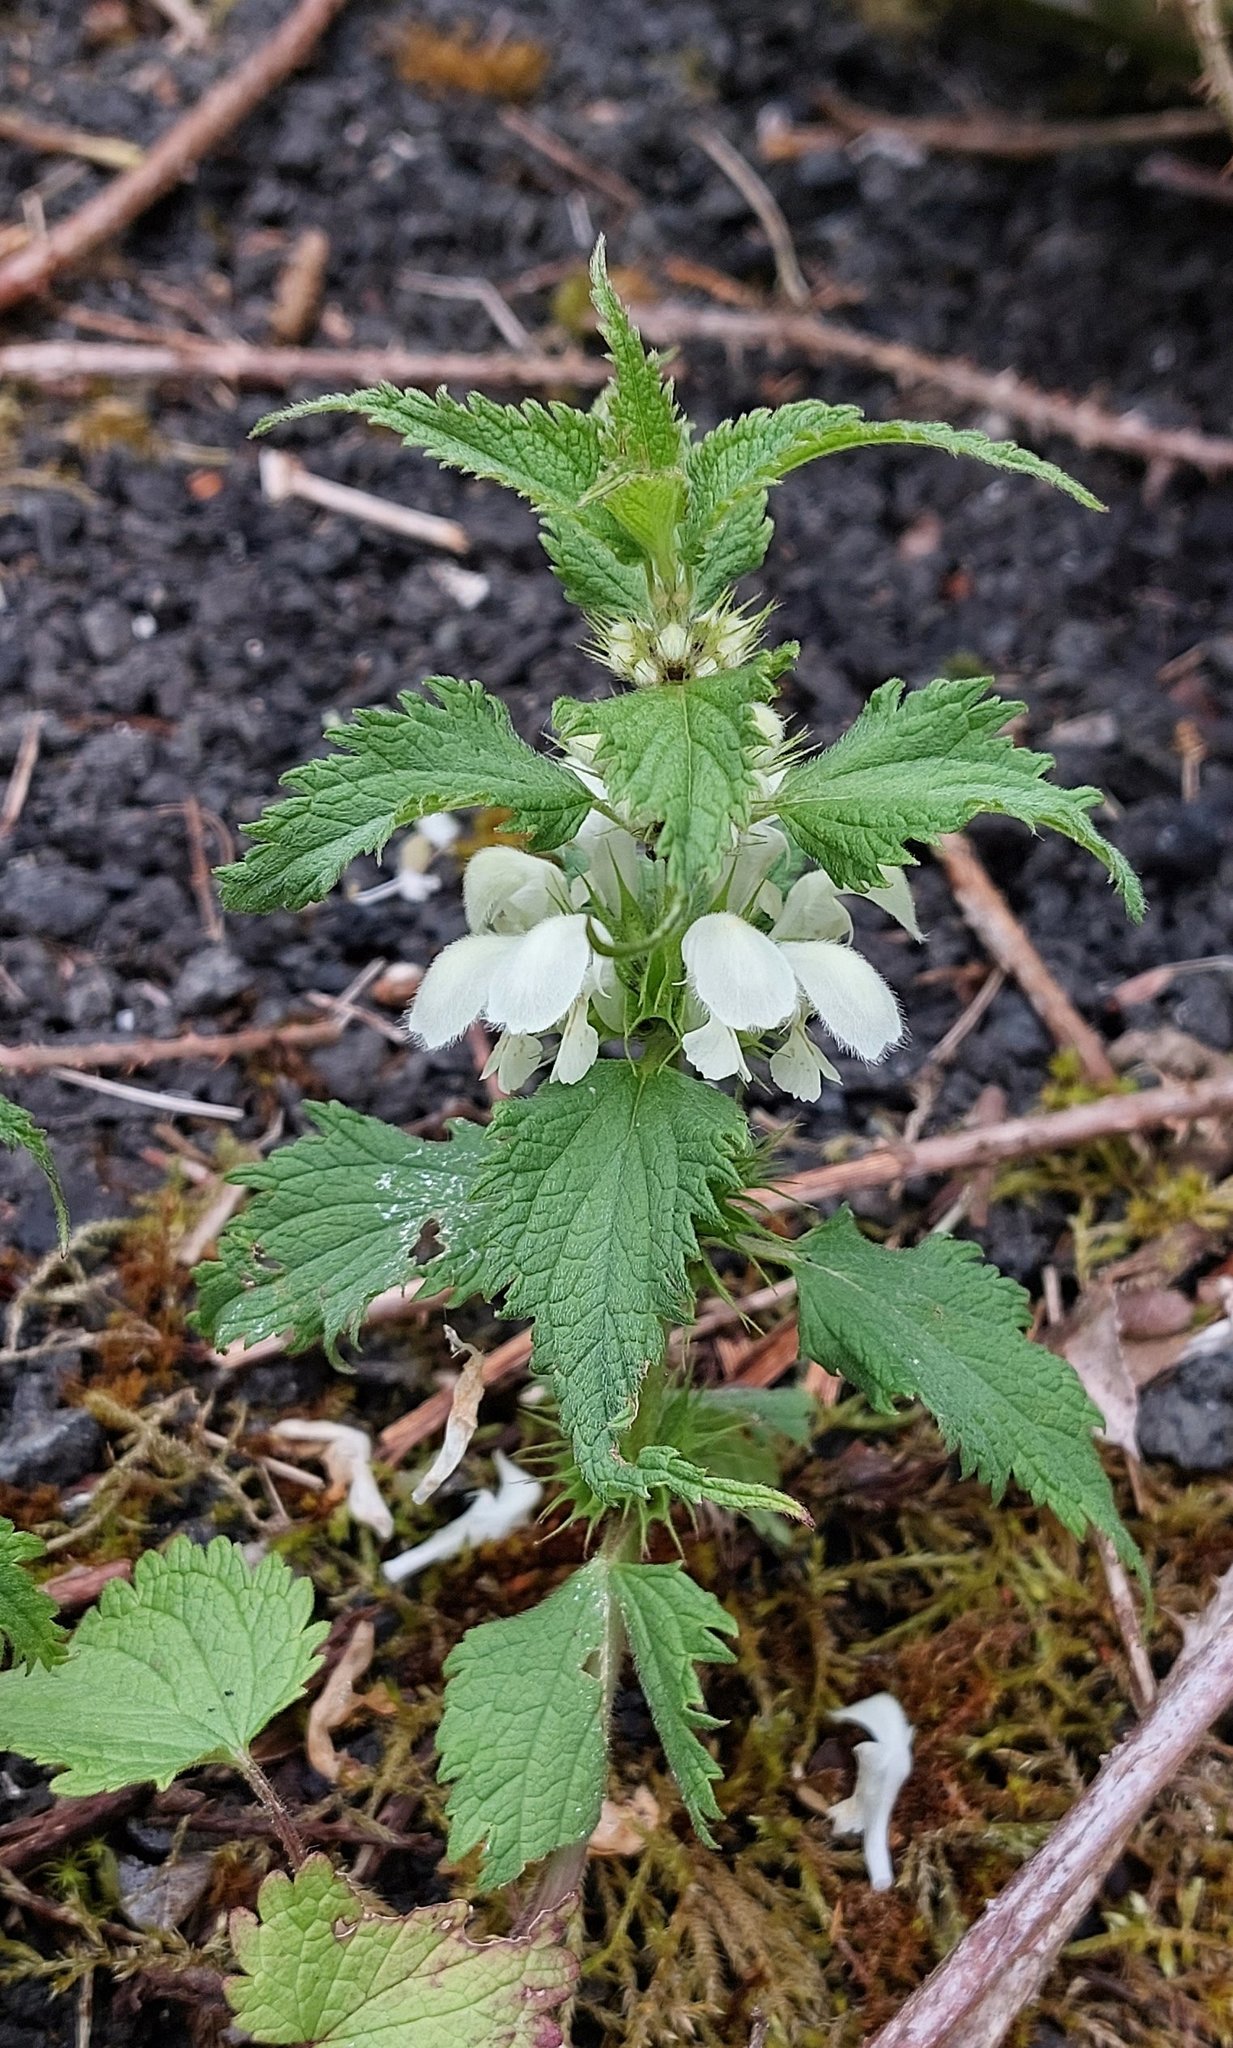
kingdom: Plantae
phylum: Tracheophyta
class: Magnoliopsida
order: Lamiales
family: Lamiaceae
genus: Lamium
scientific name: Lamium album
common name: White dead-nettle
